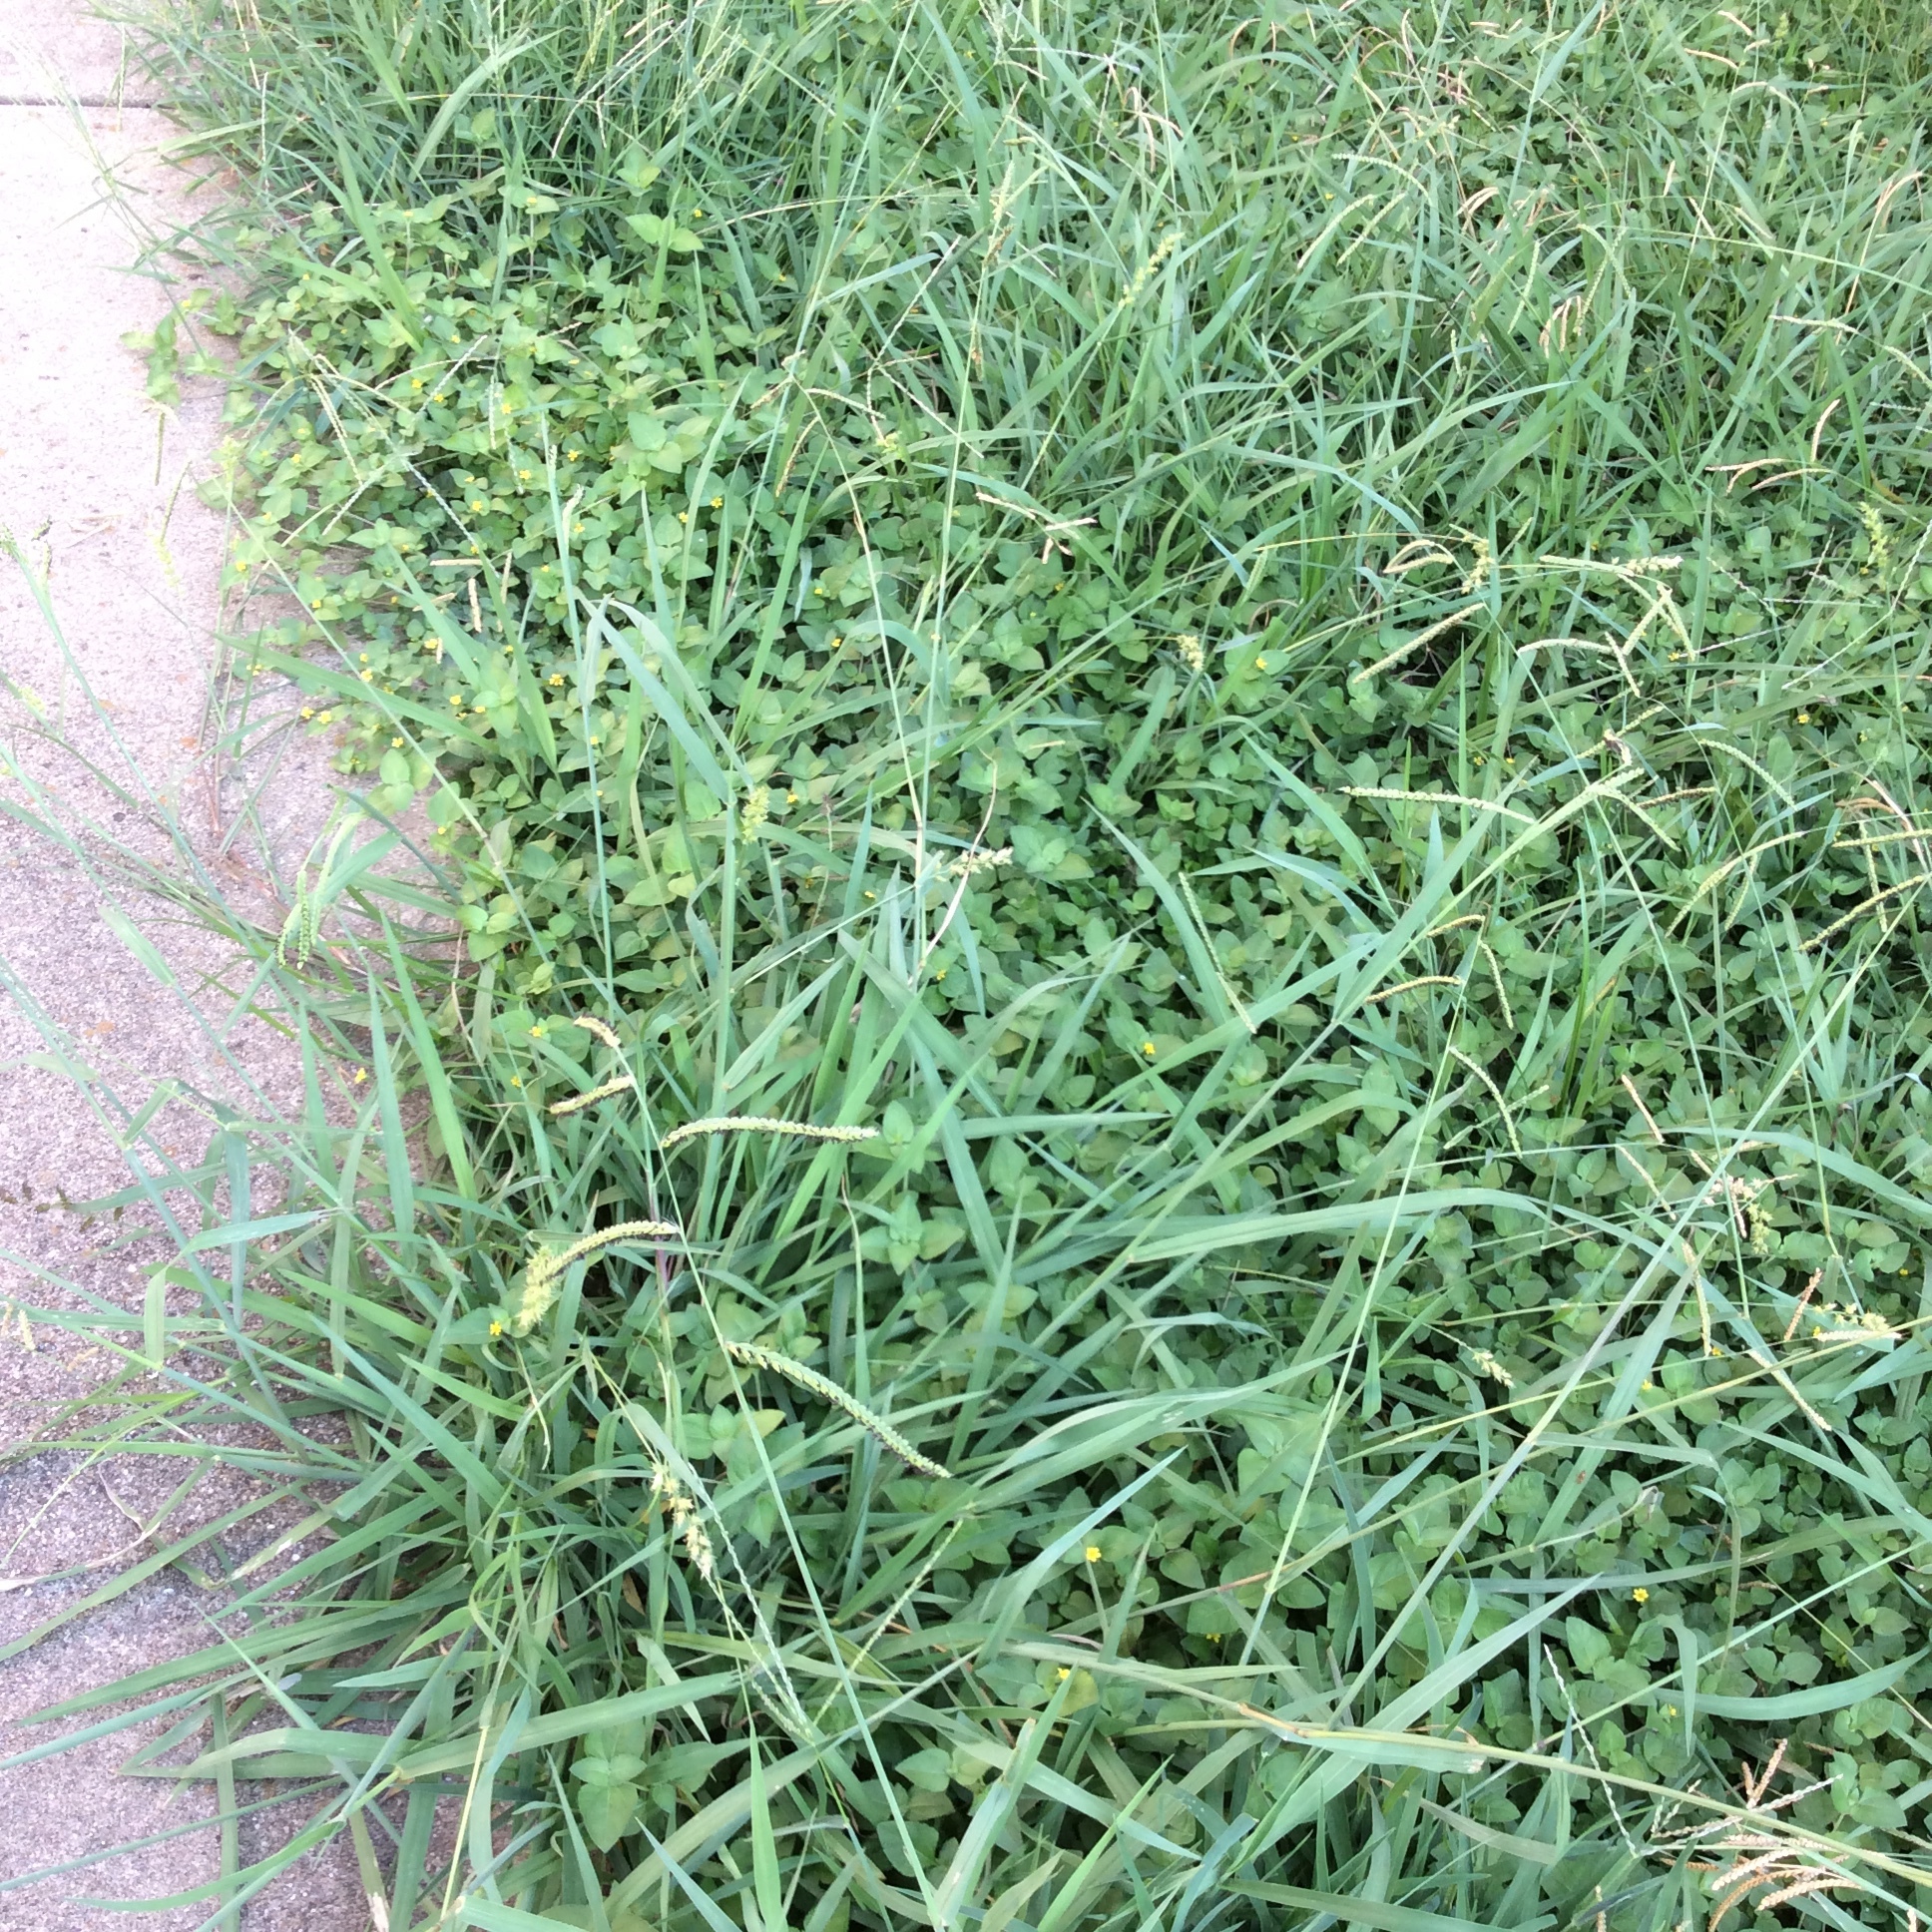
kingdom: Plantae
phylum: Tracheophyta
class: Liliopsida
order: Poales
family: Poaceae
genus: Paspalum
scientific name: Paspalum dilatatum
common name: Dallisgrass
